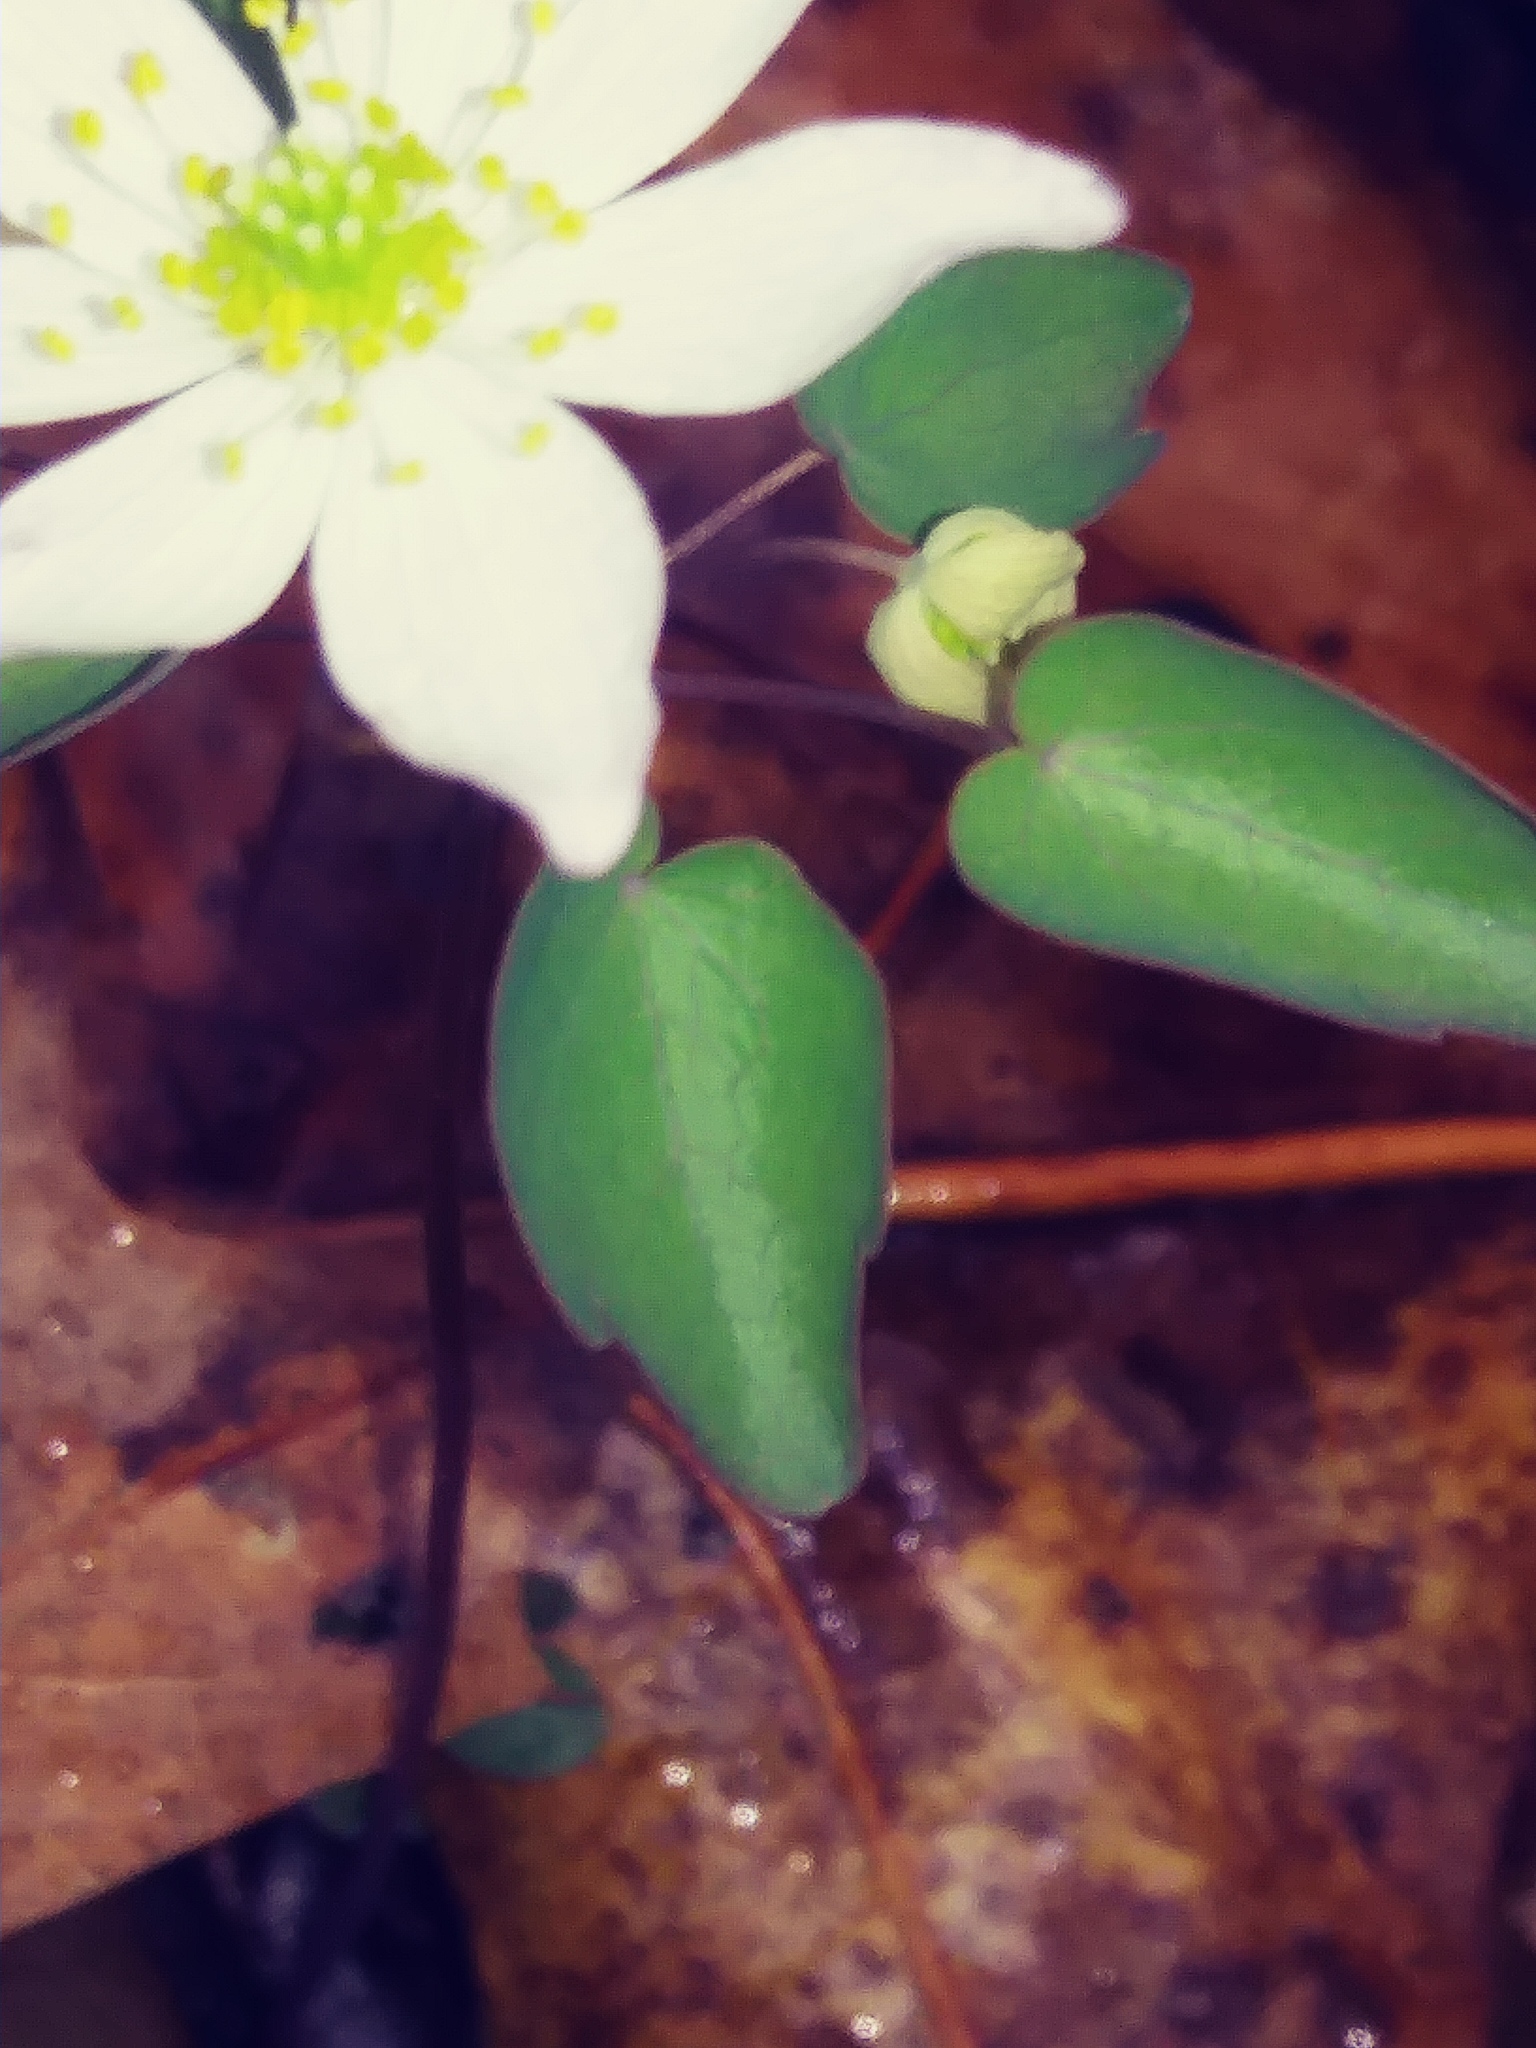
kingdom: Plantae
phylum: Tracheophyta
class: Magnoliopsida
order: Ranunculales
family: Ranunculaceae
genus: Thalictrum
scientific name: Thalictrum thalictroides
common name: Rue-anemone
